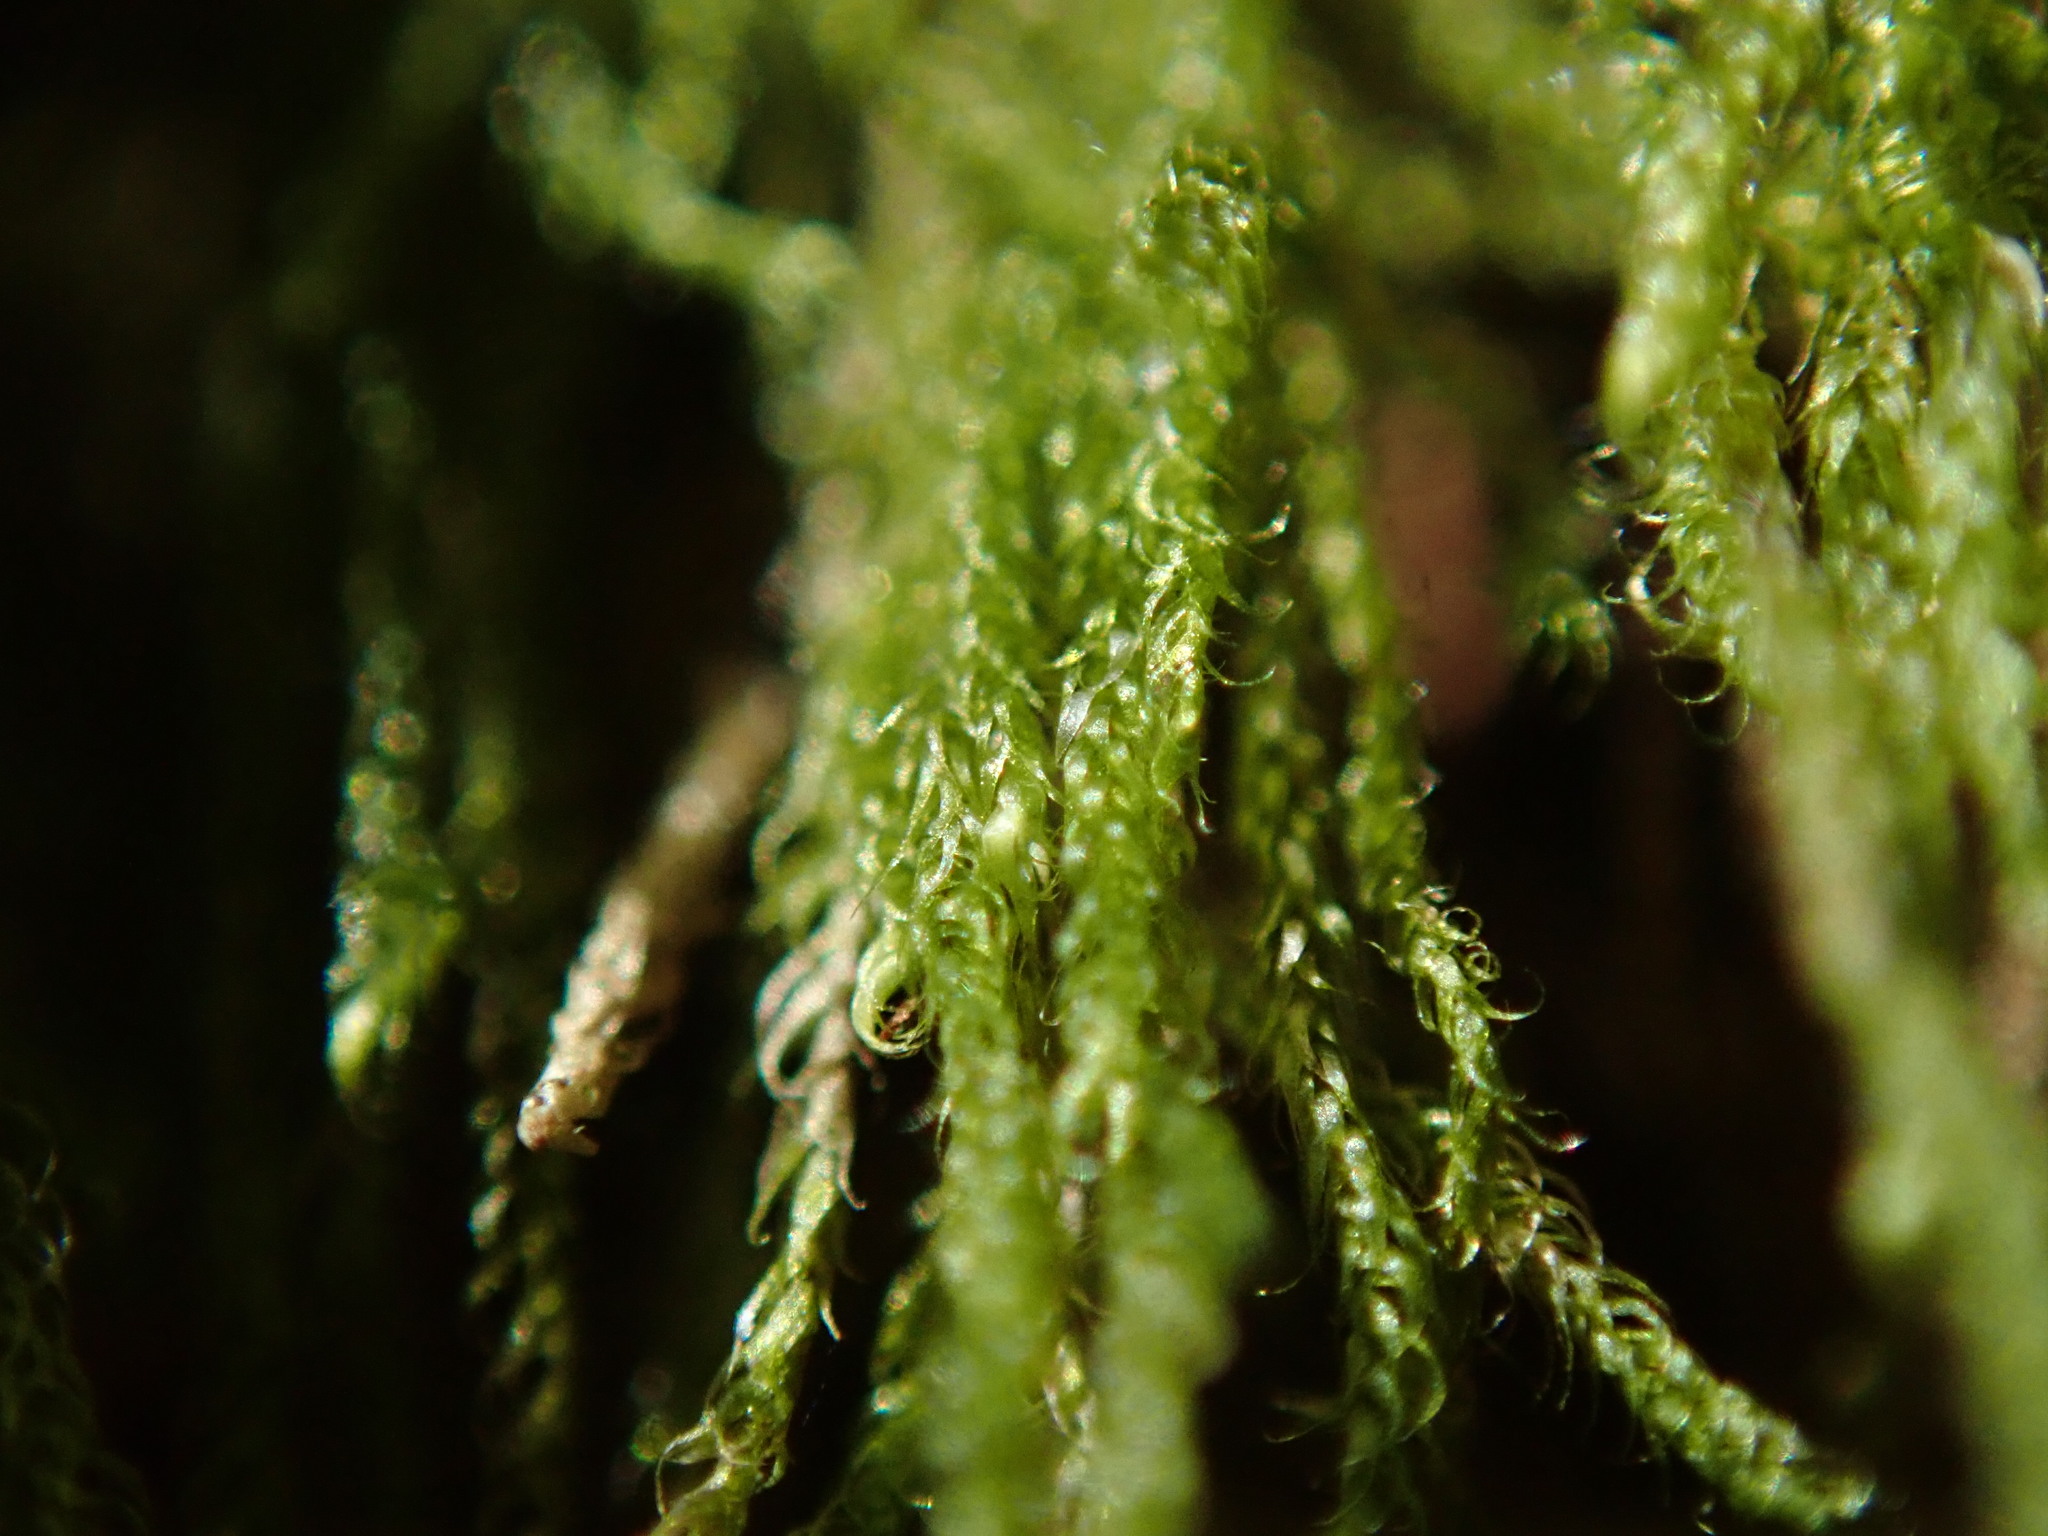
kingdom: Plantae
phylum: Bryophyta
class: Bryopsida
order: Hypnales
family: Pylaisiadelphaceae
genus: Trochophyllohypnum
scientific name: Trochophyllohypnum circinale
